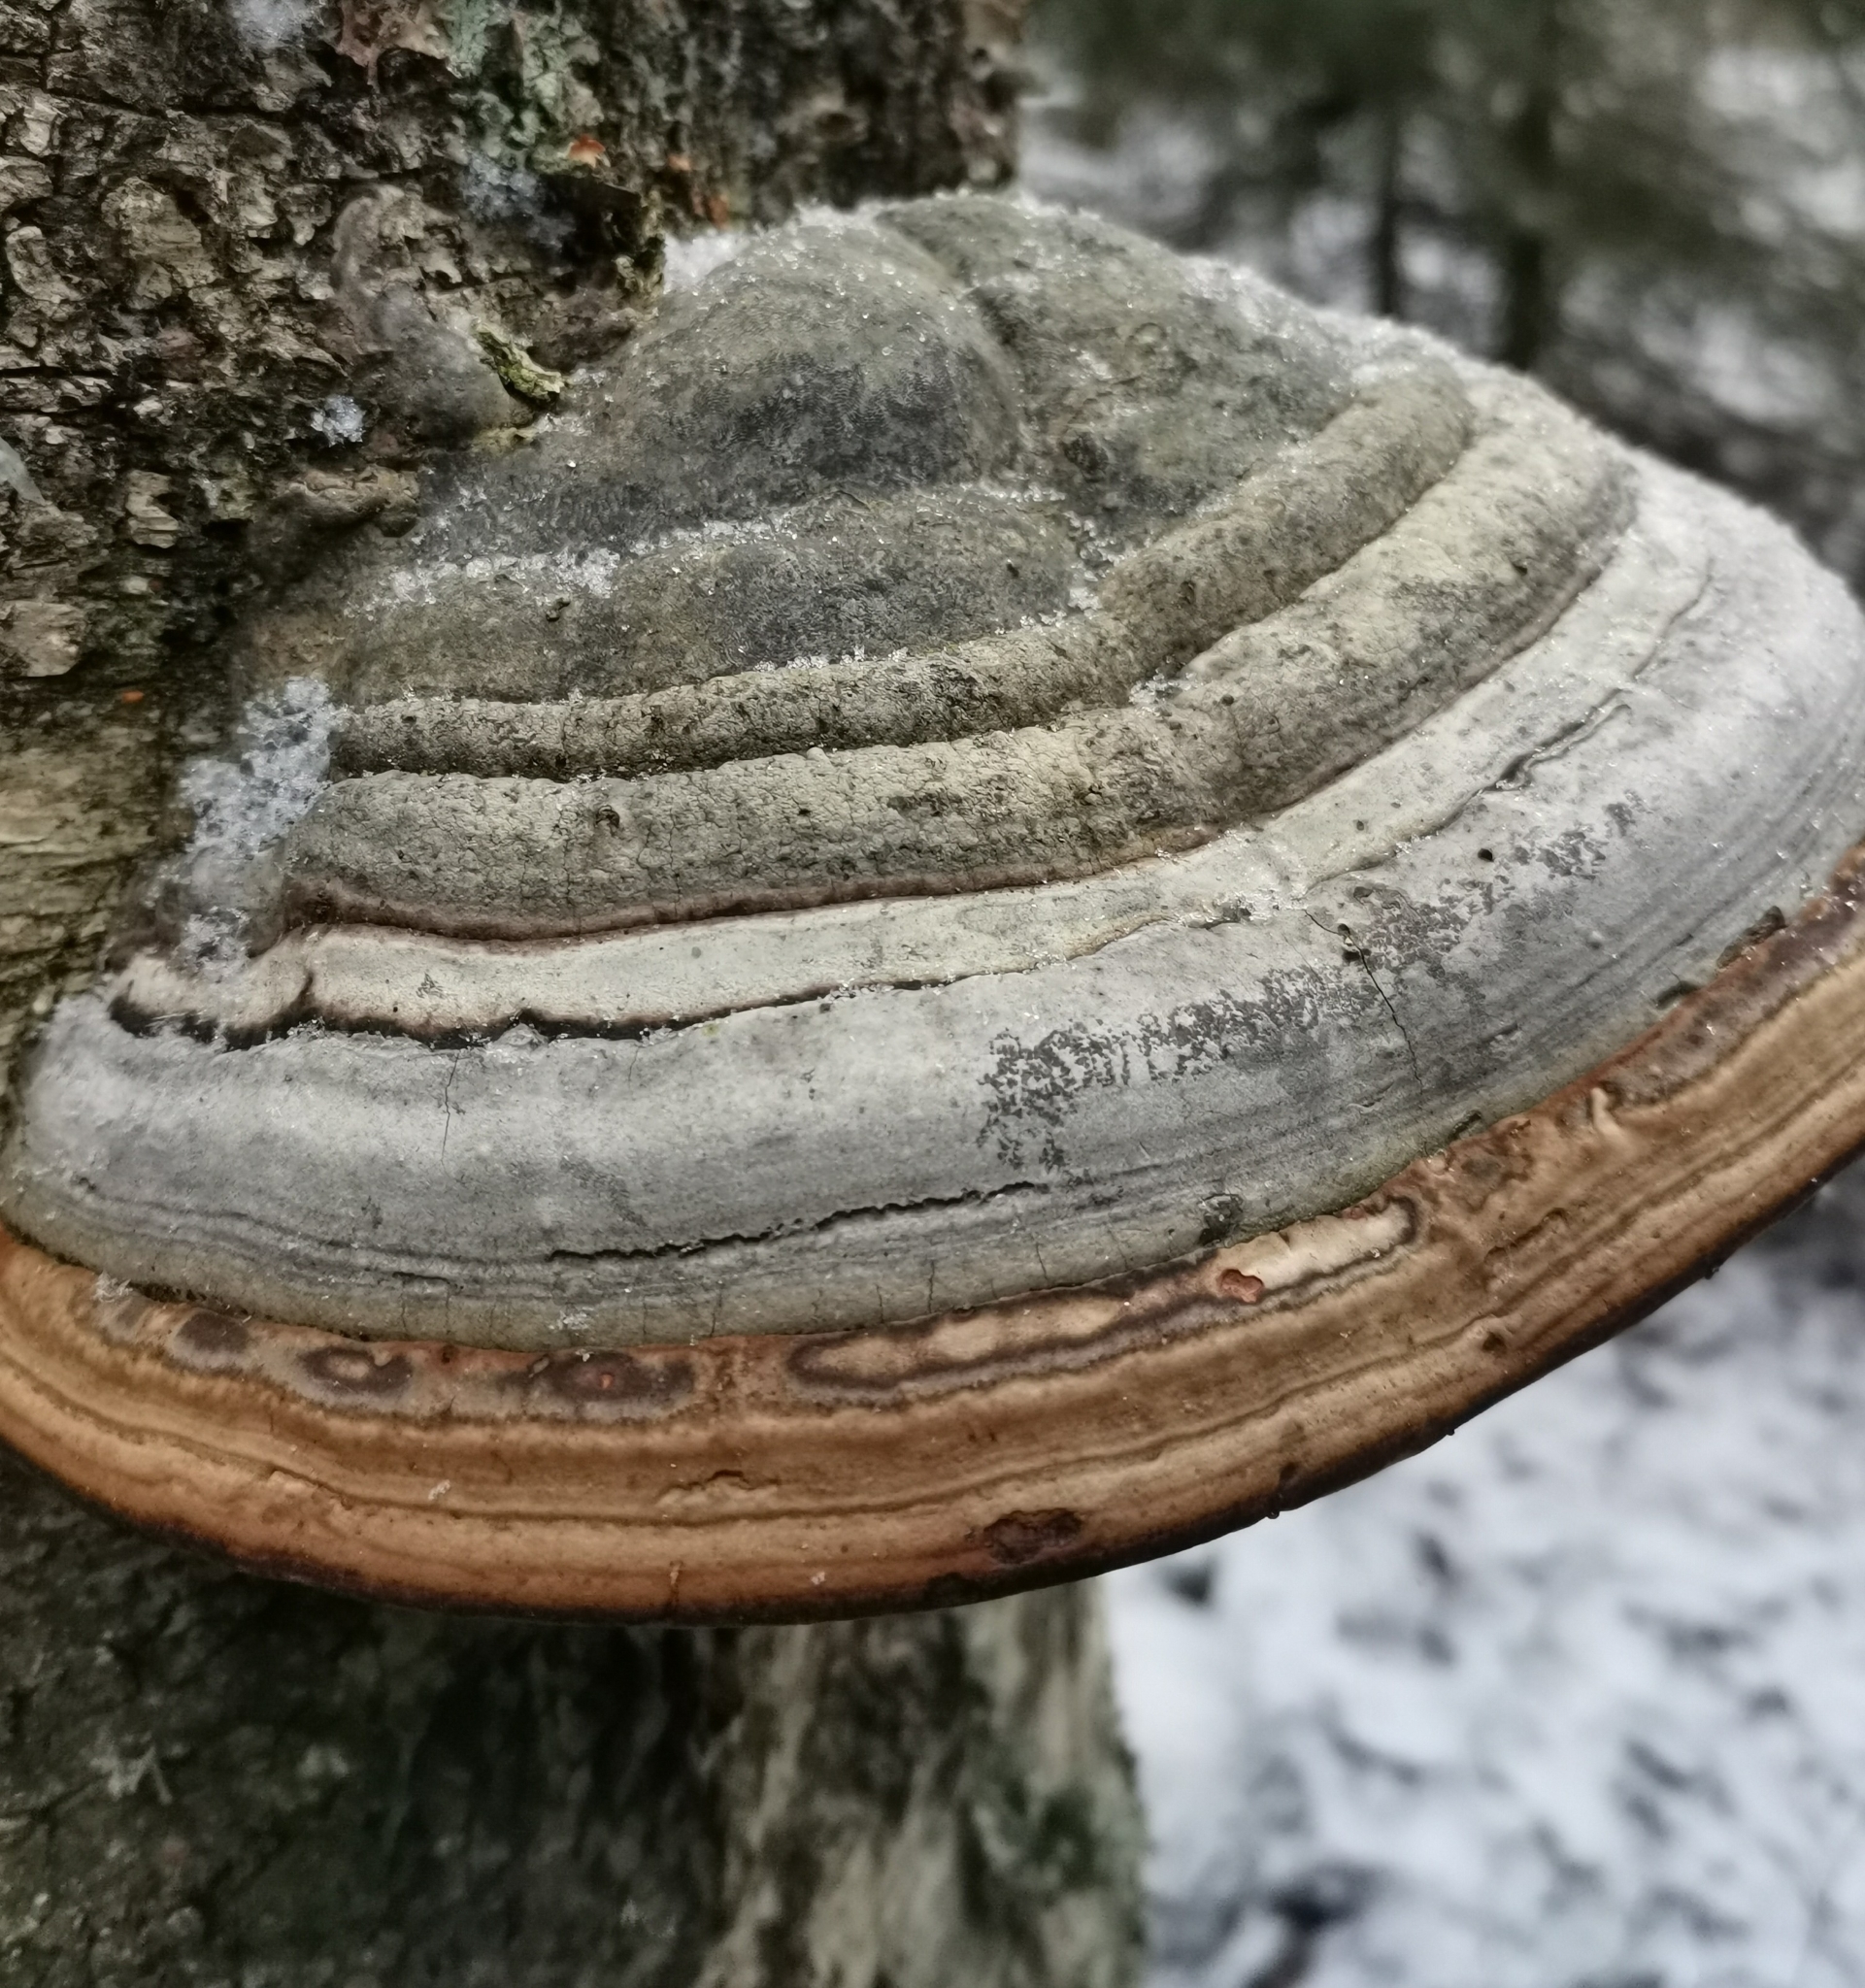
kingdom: Fungi
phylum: Basidiomycota
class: Agaricomycetes
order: Polyporales
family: Polyporaceae
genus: Fomes
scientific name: Fomes fomentarius
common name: Hoof fungus
